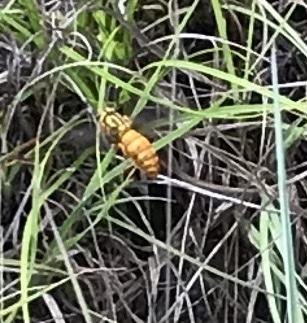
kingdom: Animalia
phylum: Arthropoda
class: Insecta
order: Hymenoptera
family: Vespidae
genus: Vespula
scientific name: Vespula squamosa
